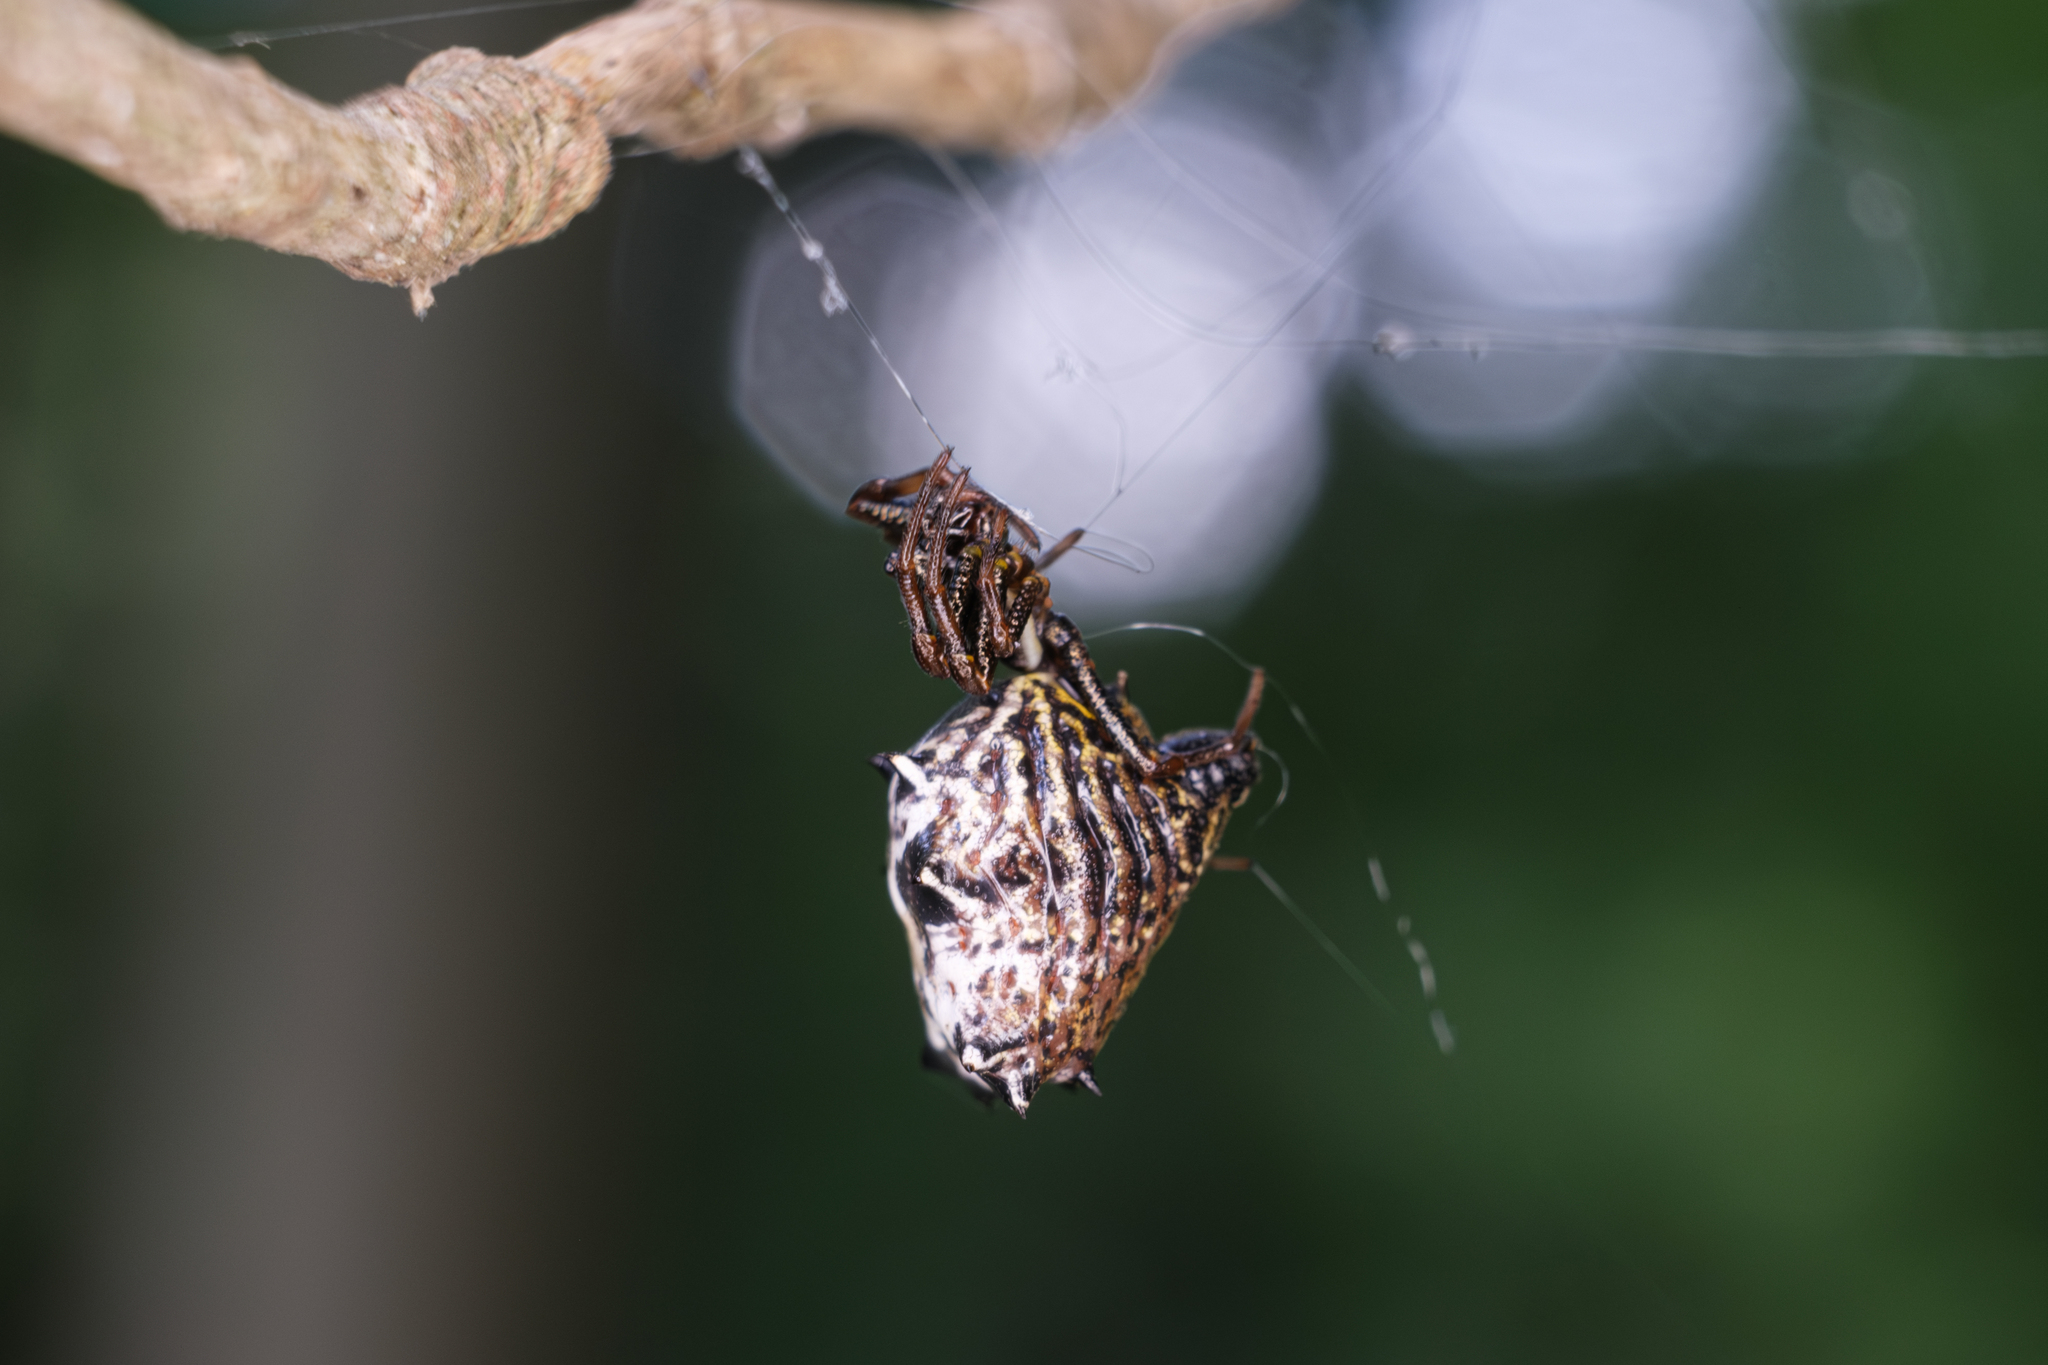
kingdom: Animalia
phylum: Arthropoda
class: Arachnida
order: Araneae
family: Araneidae
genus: Micrathena
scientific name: Micrathena gracilis
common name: Orb weavers
